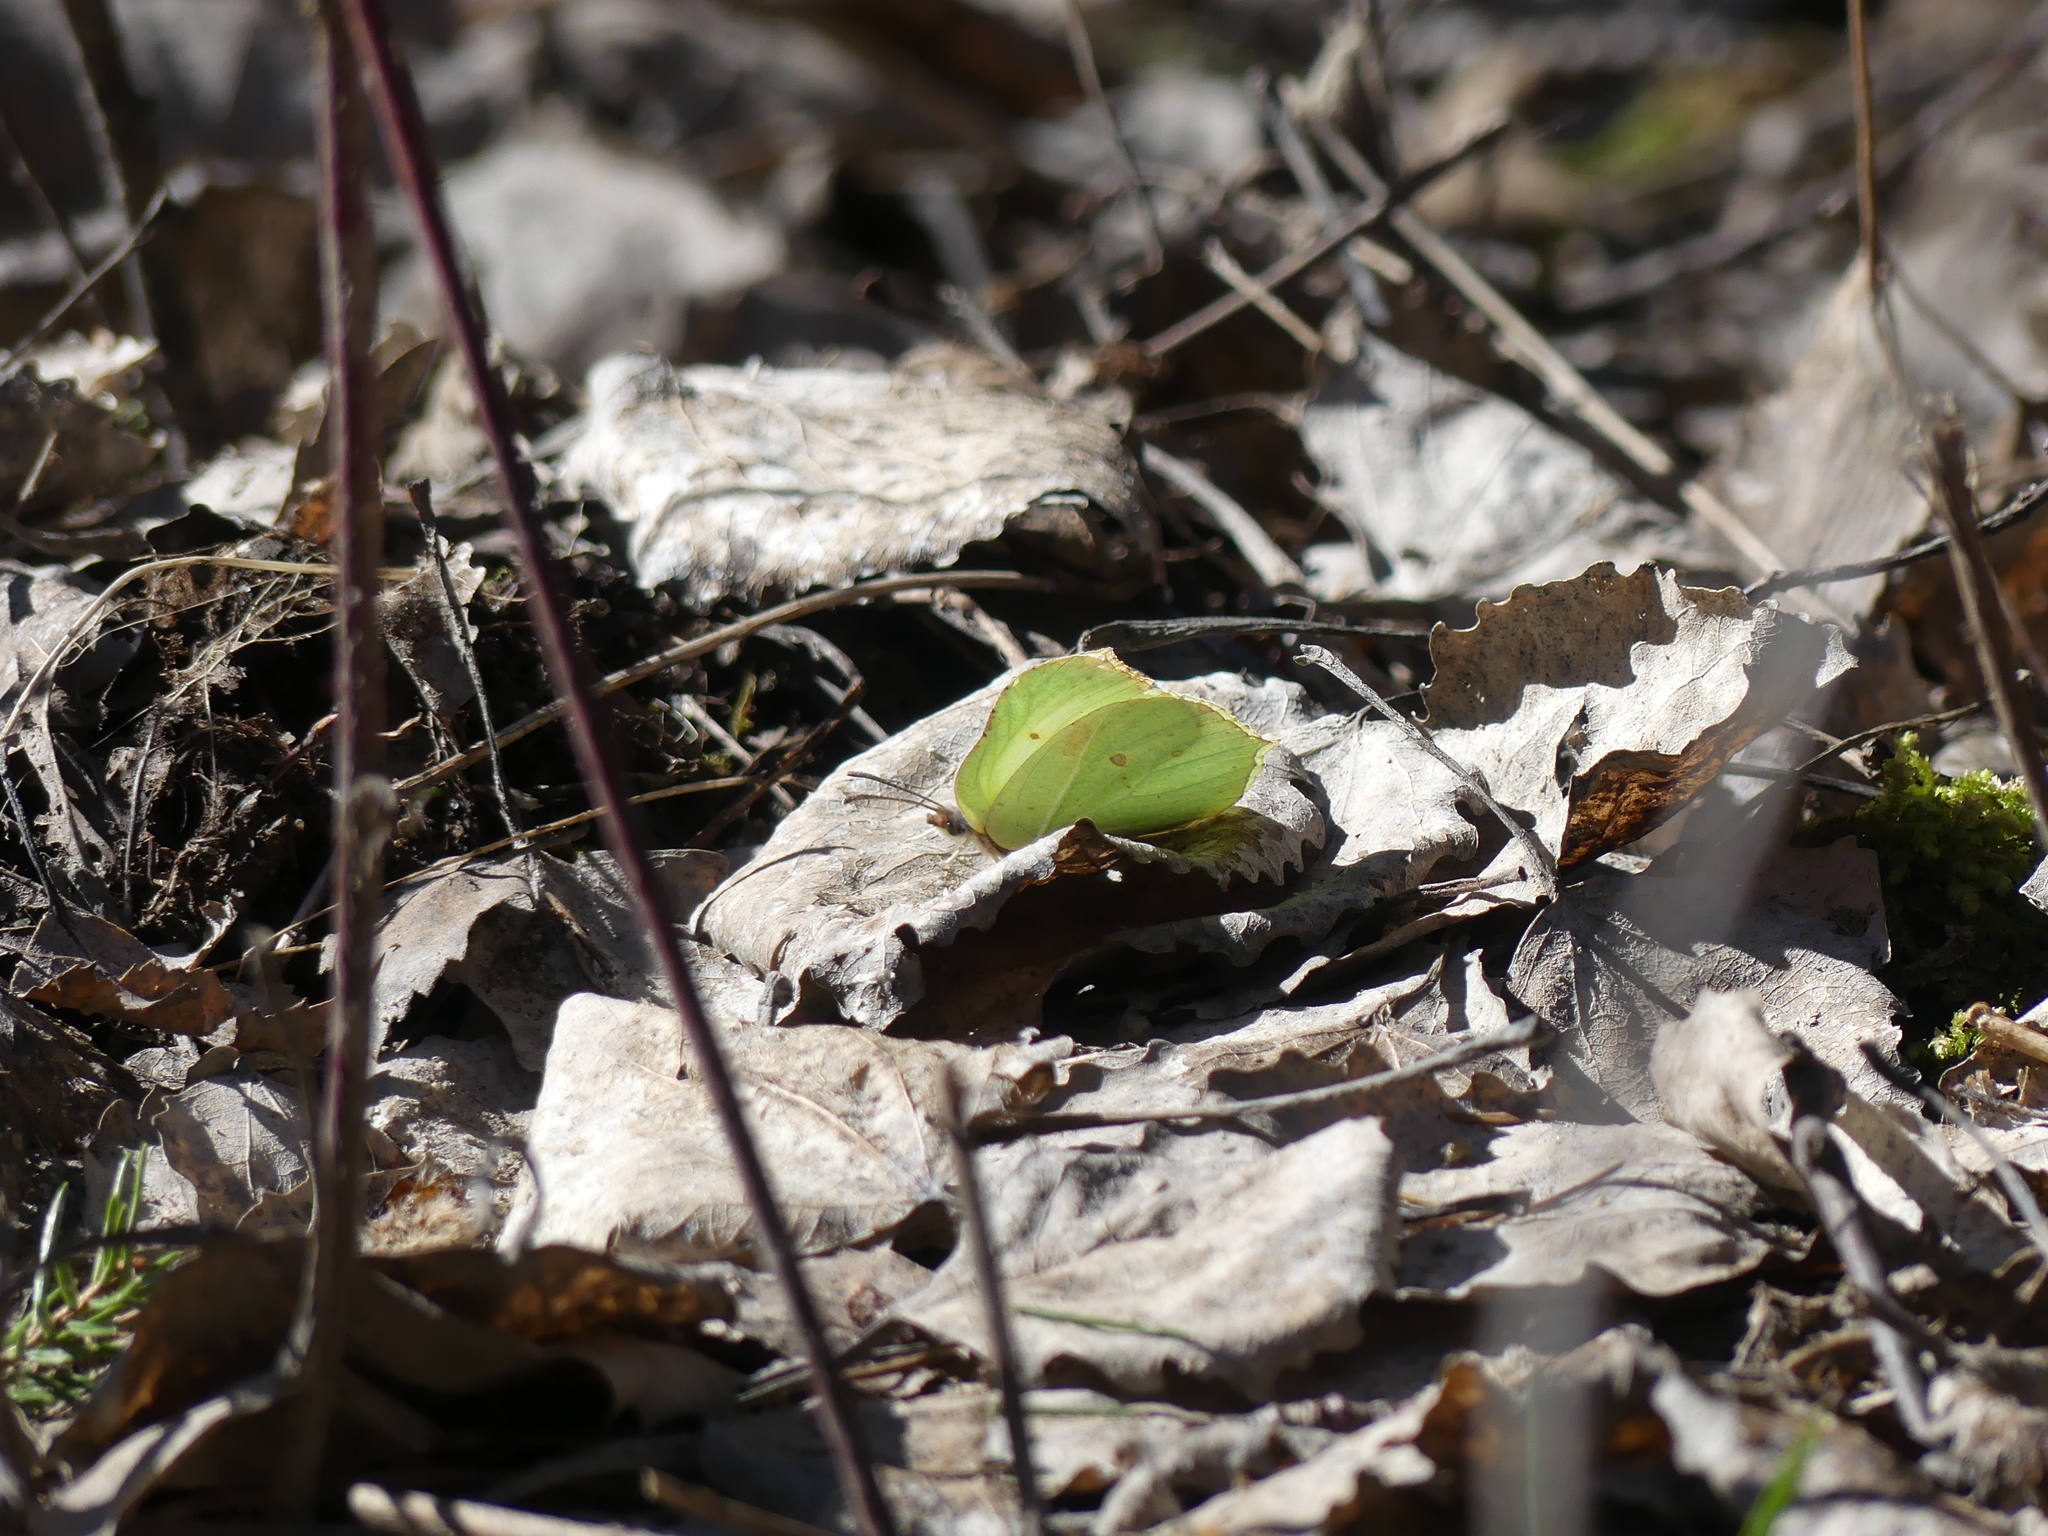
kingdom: Animalia
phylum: Arthropoda
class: Insecta
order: Lepidoptera
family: Pieridae
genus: Gonepteryx
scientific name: Gonepteryx rhamni
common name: Brimstone
